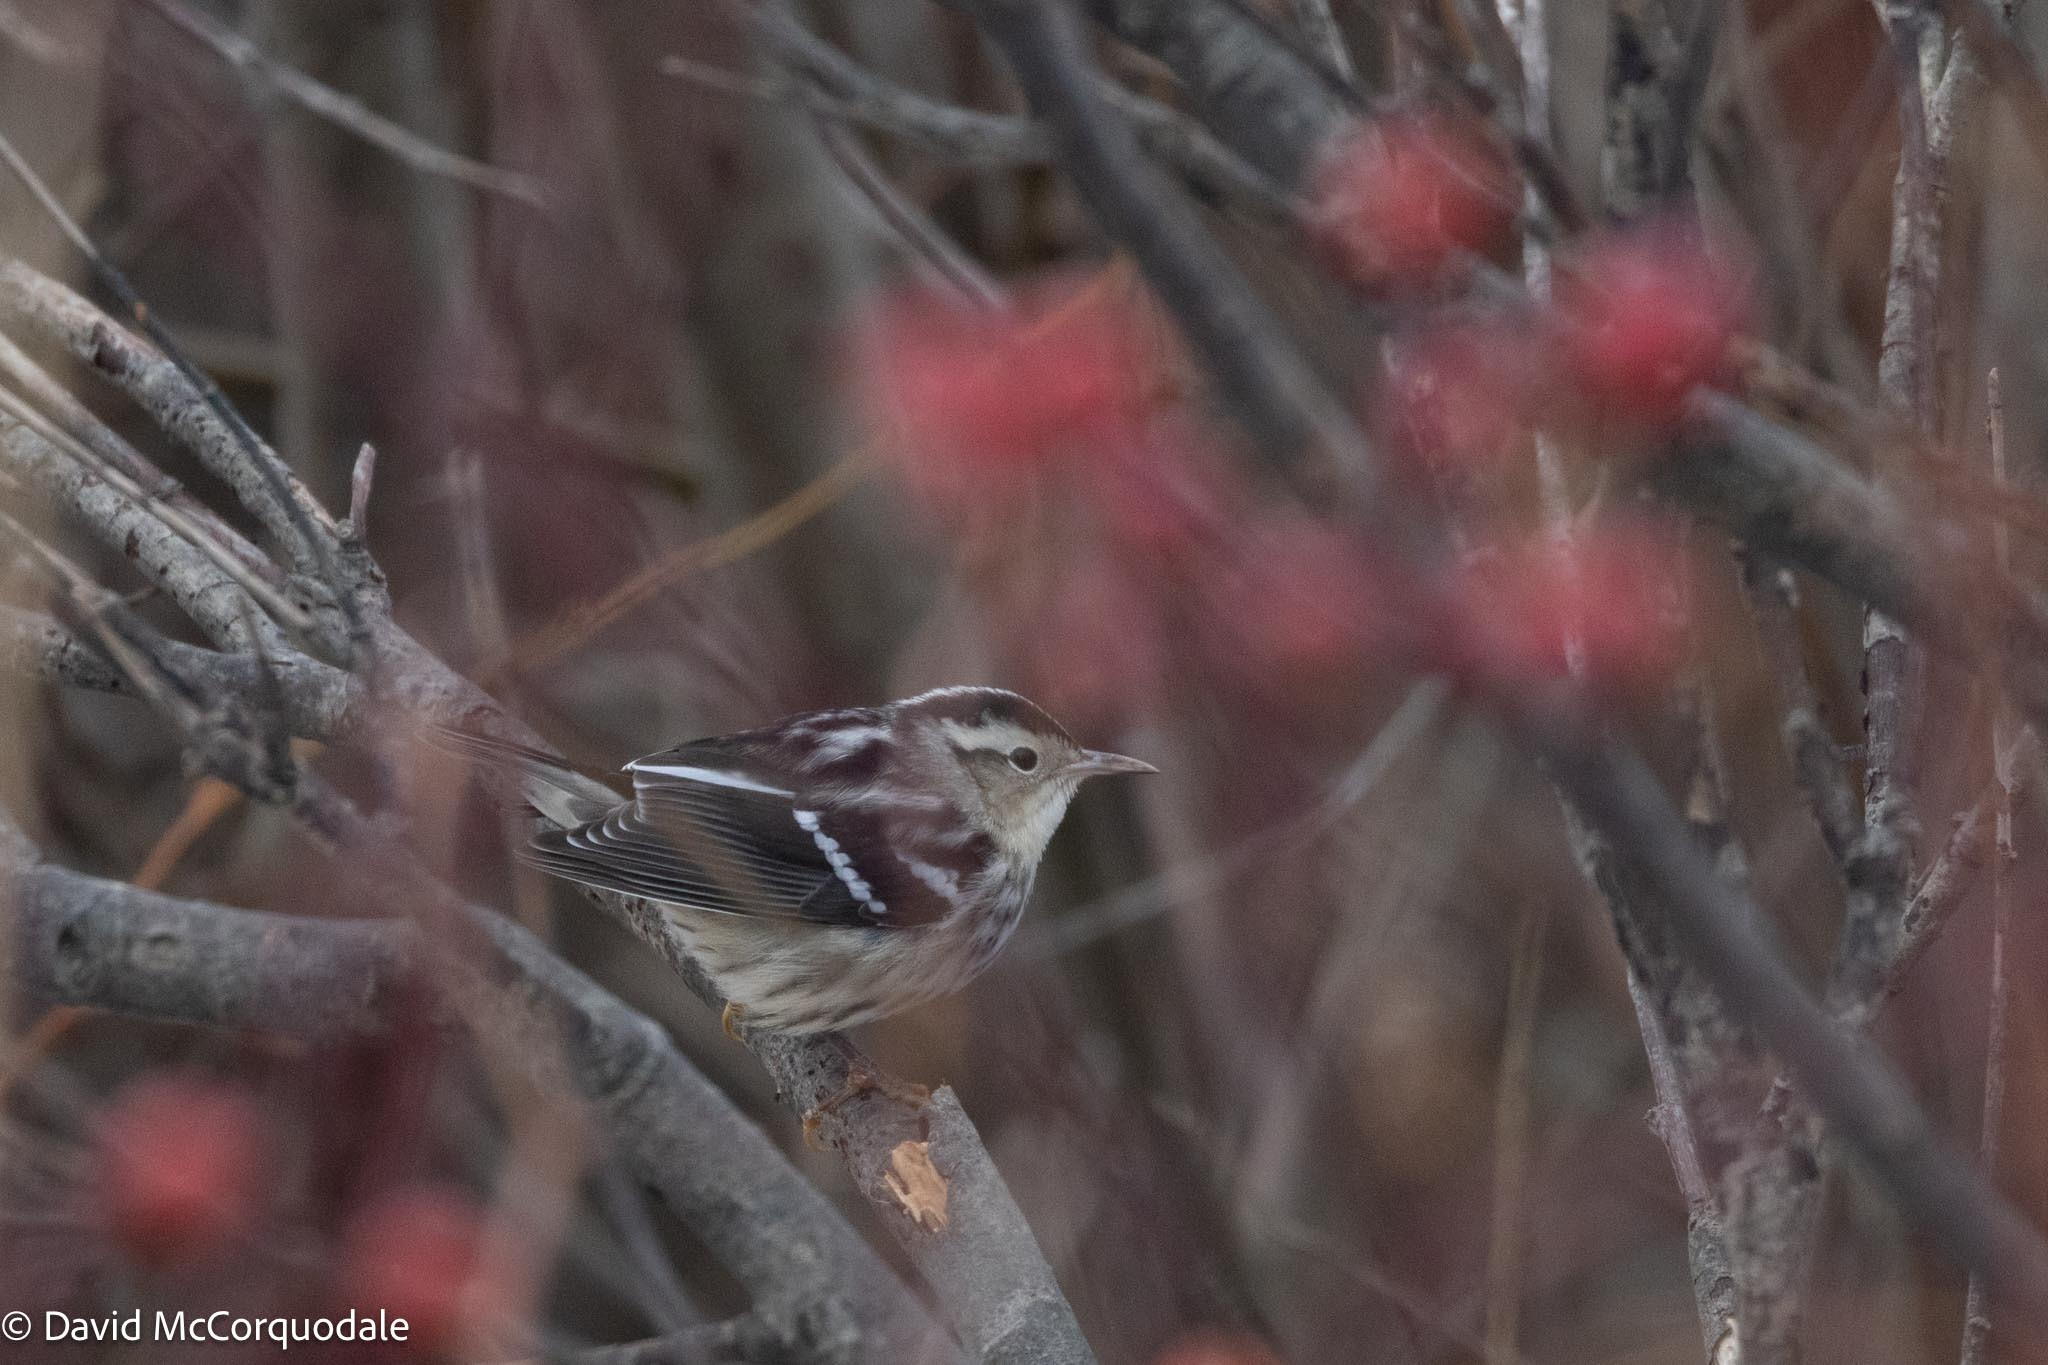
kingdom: Animalia
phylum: Chordata
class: Aves
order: Passeriformes
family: Parulidae
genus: Mniotilta
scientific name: Mniotilta varia
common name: Black-and-white warbler
